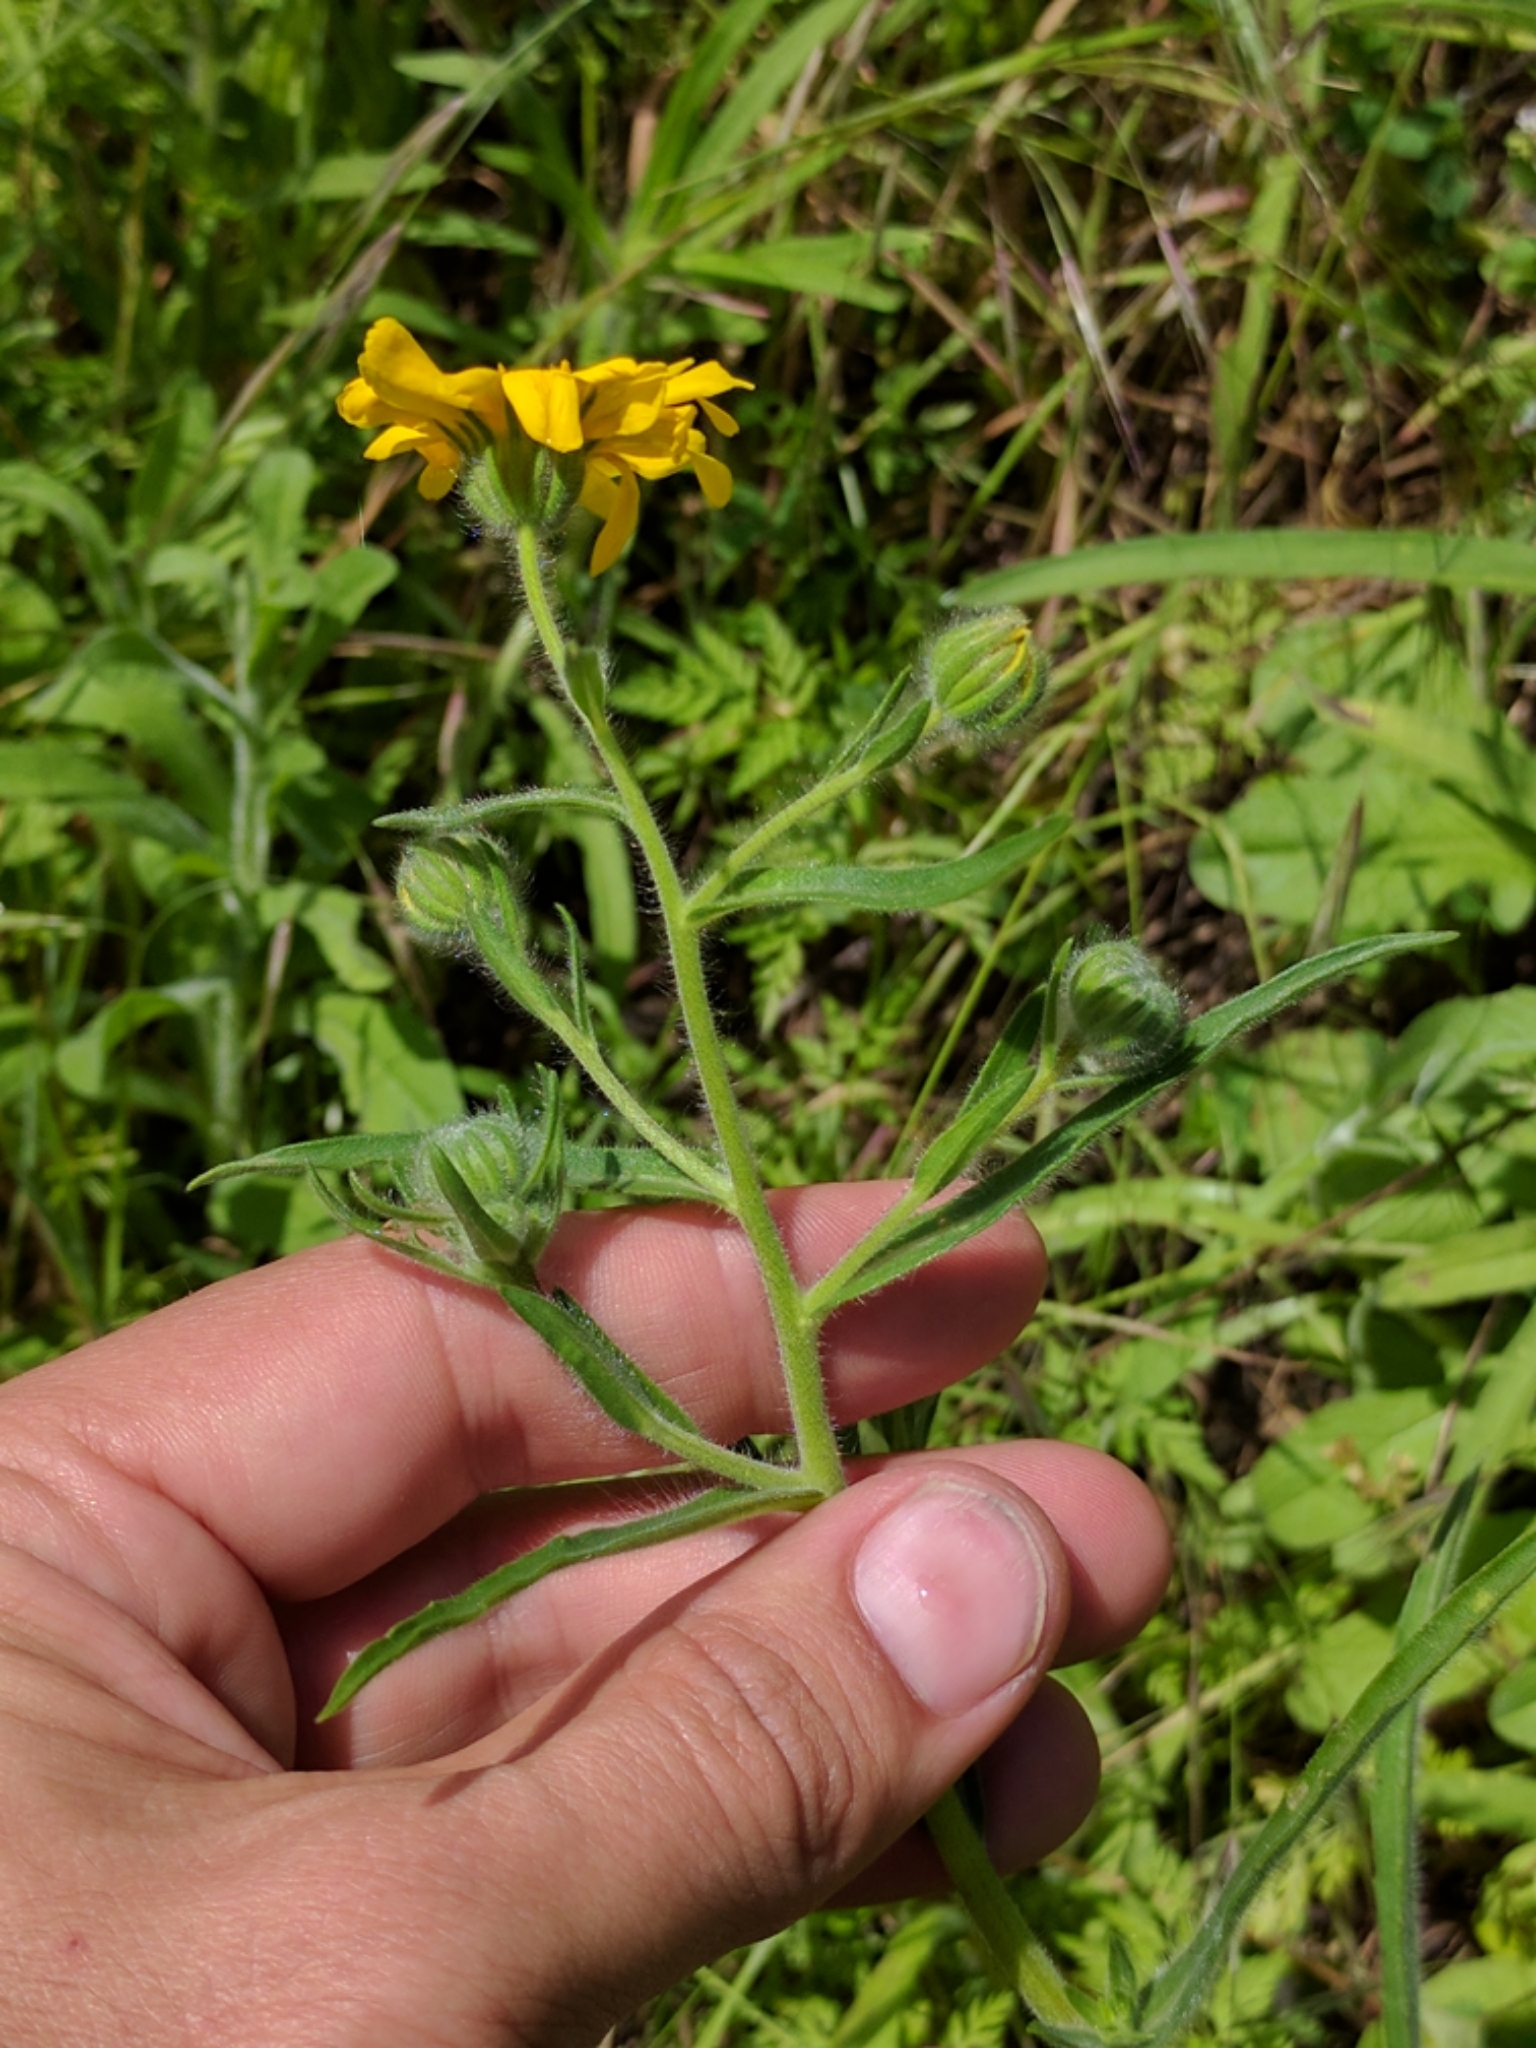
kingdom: Plantae
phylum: Tracheophyta
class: Magnoliopsida
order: Asterales
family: Asteraceae
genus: Madia
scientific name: Madia elegans
